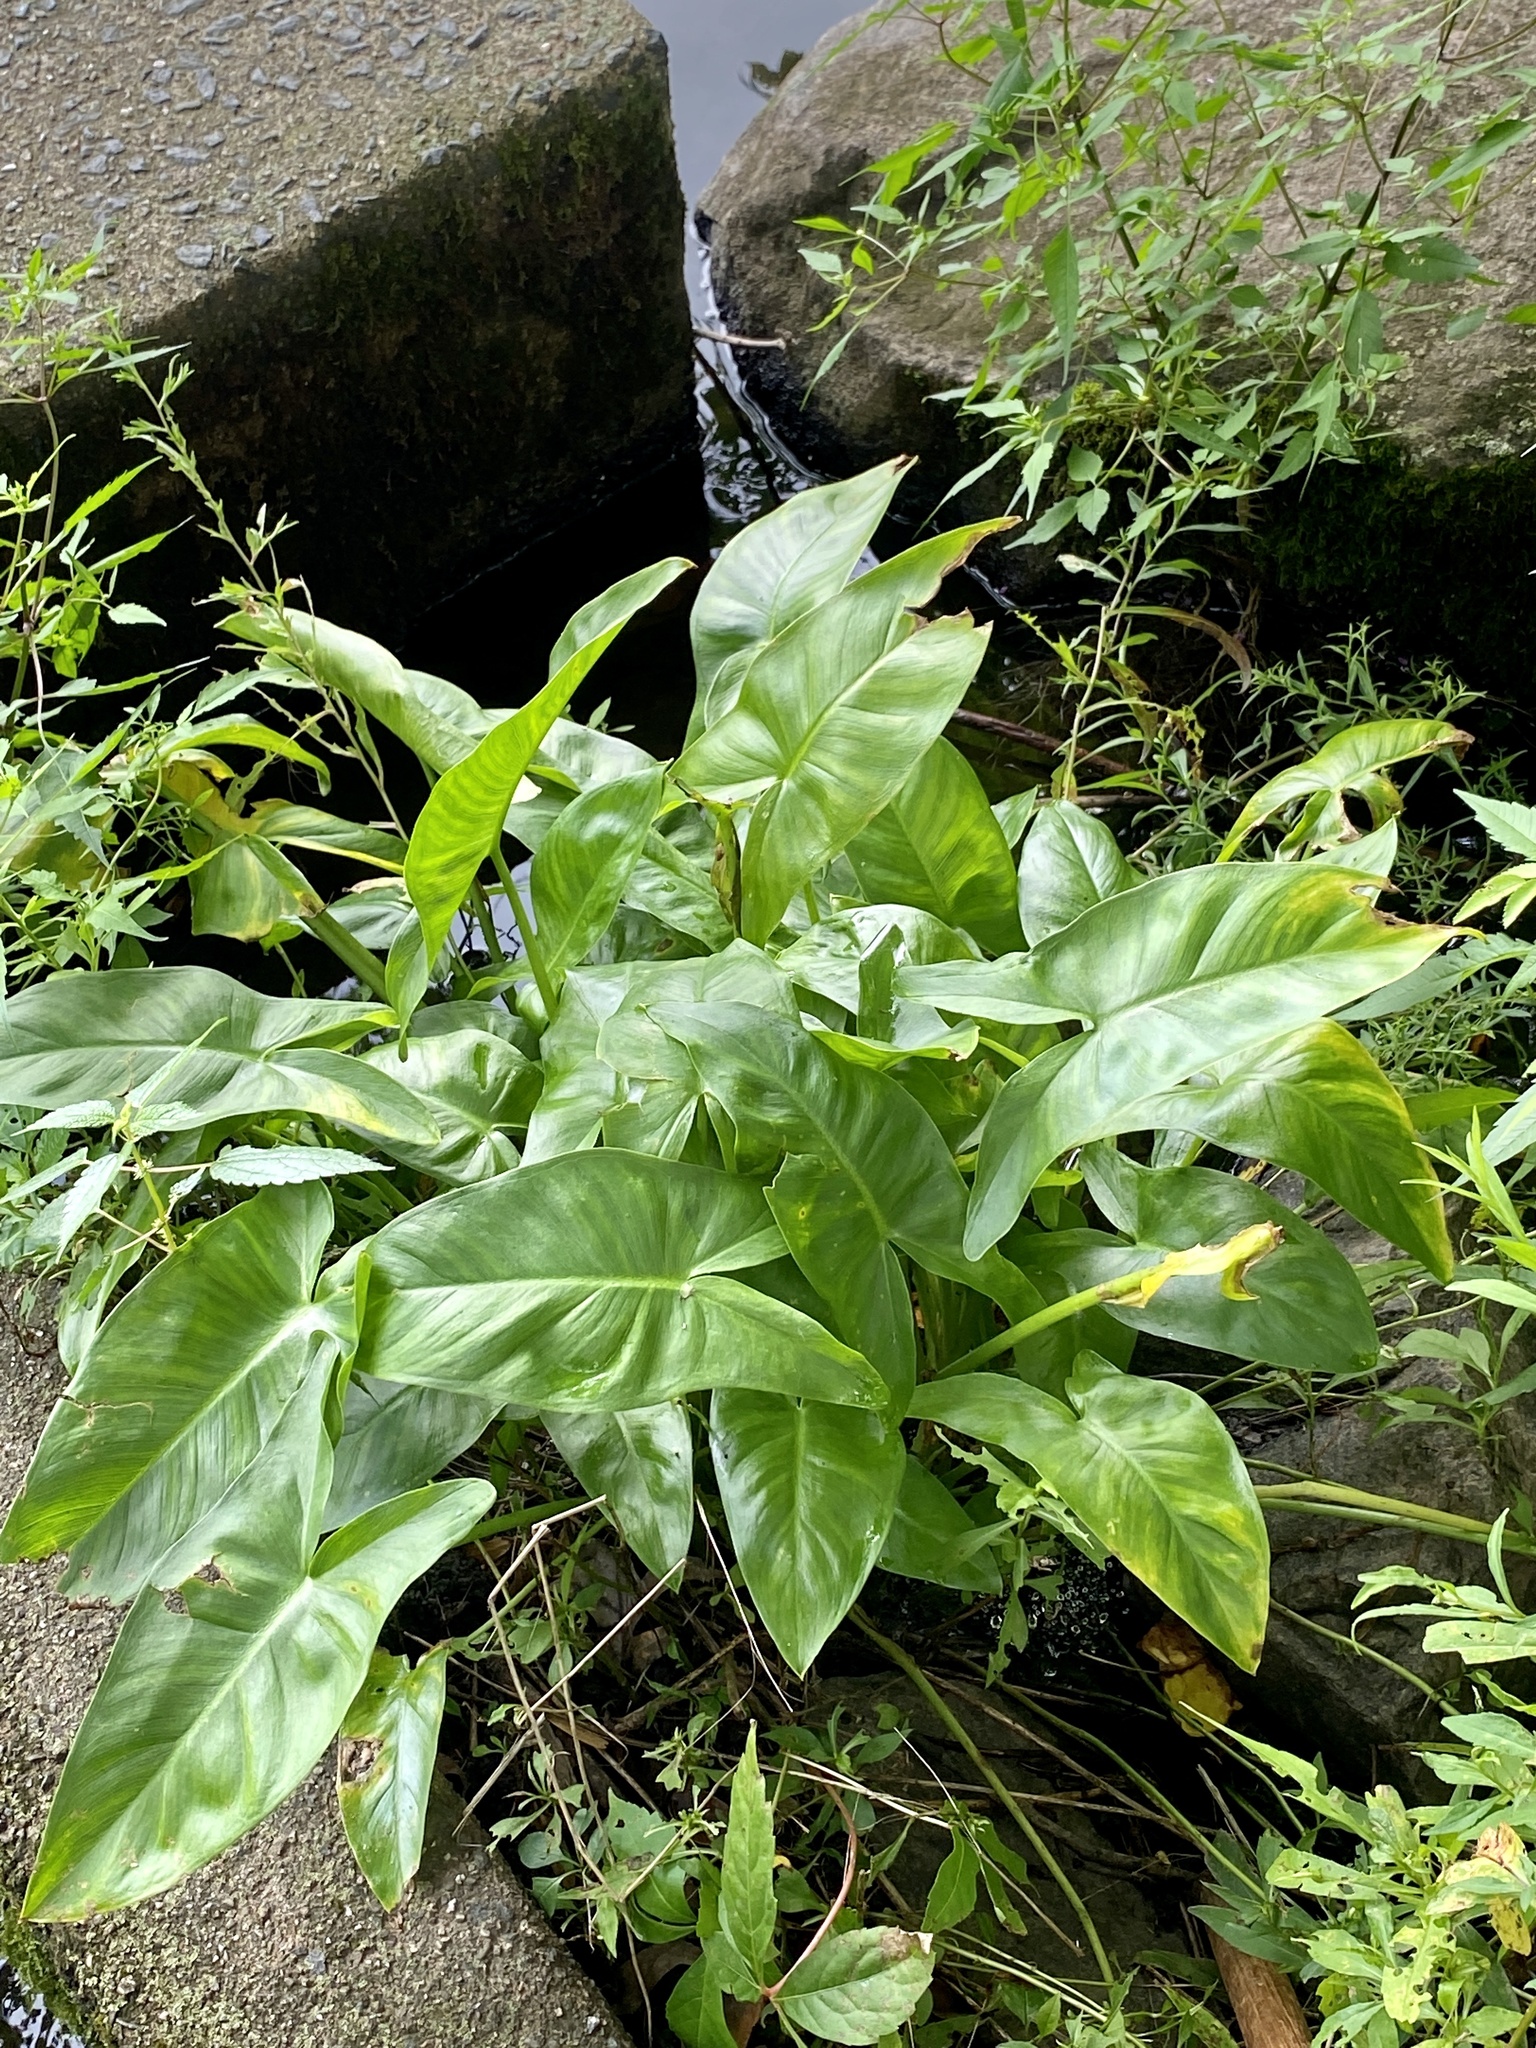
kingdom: Plantae
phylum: Tracheophyta
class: Liliopsida
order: Alismatales
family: Araceae
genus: Peltandra
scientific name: Peltandra virginica
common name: Arrow arum
